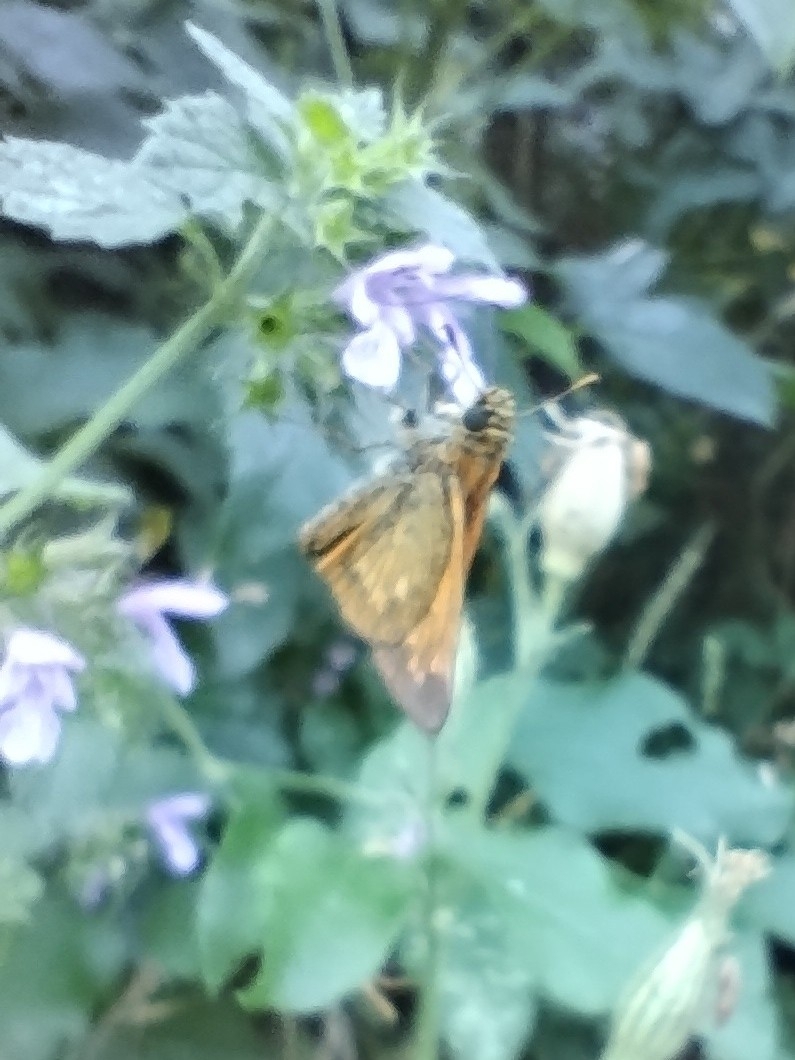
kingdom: Animalia
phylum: Arthropoda
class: Insecta
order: Lepidoptera
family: Hesperiidae
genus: Ochlodes
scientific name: Ochlodes venata
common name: Large skipper
